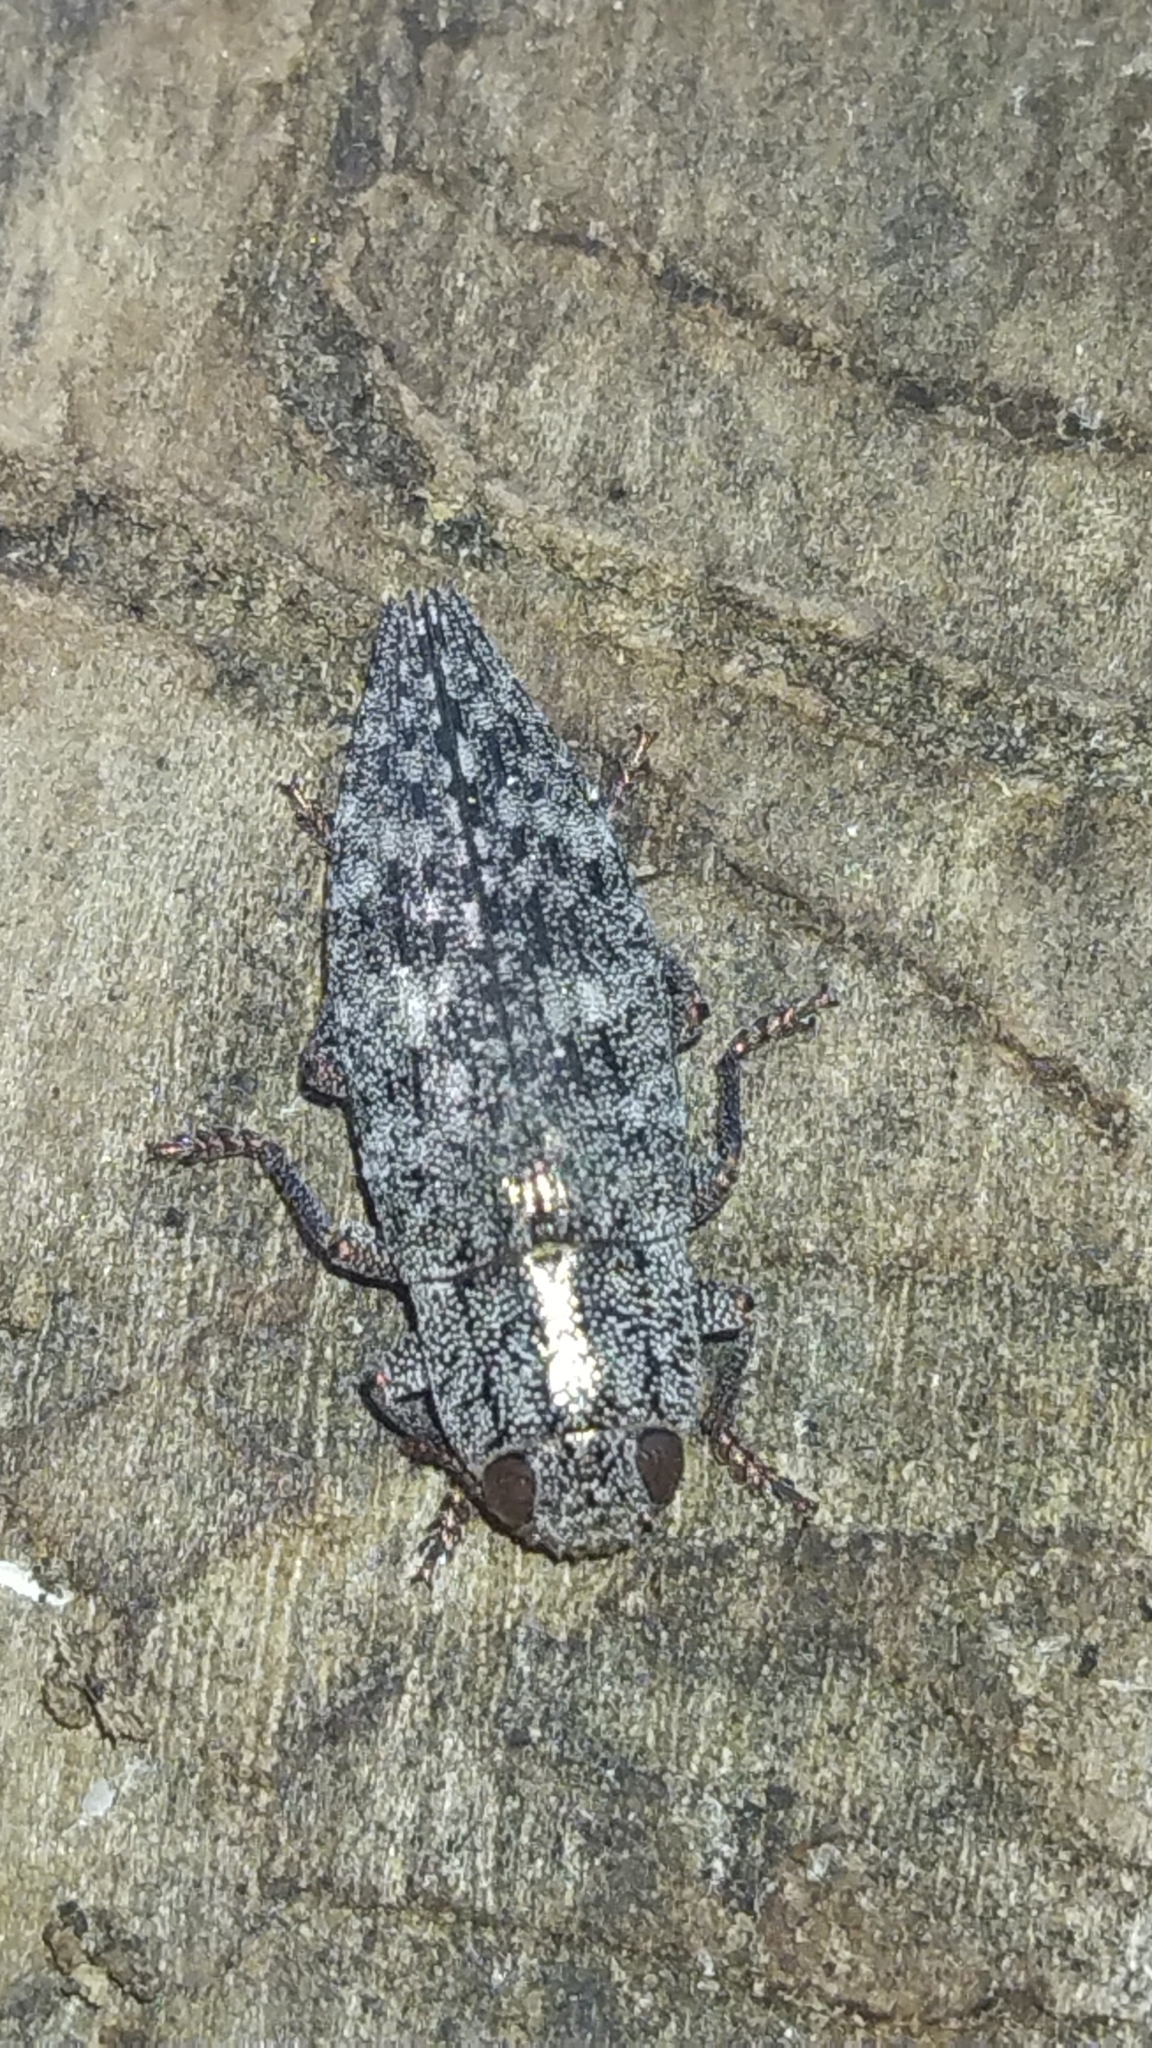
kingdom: Animalia
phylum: Arthropoda
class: Insecta
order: Coleoptera
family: Buprestidae
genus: Dicerca
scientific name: Dicerca obscura
